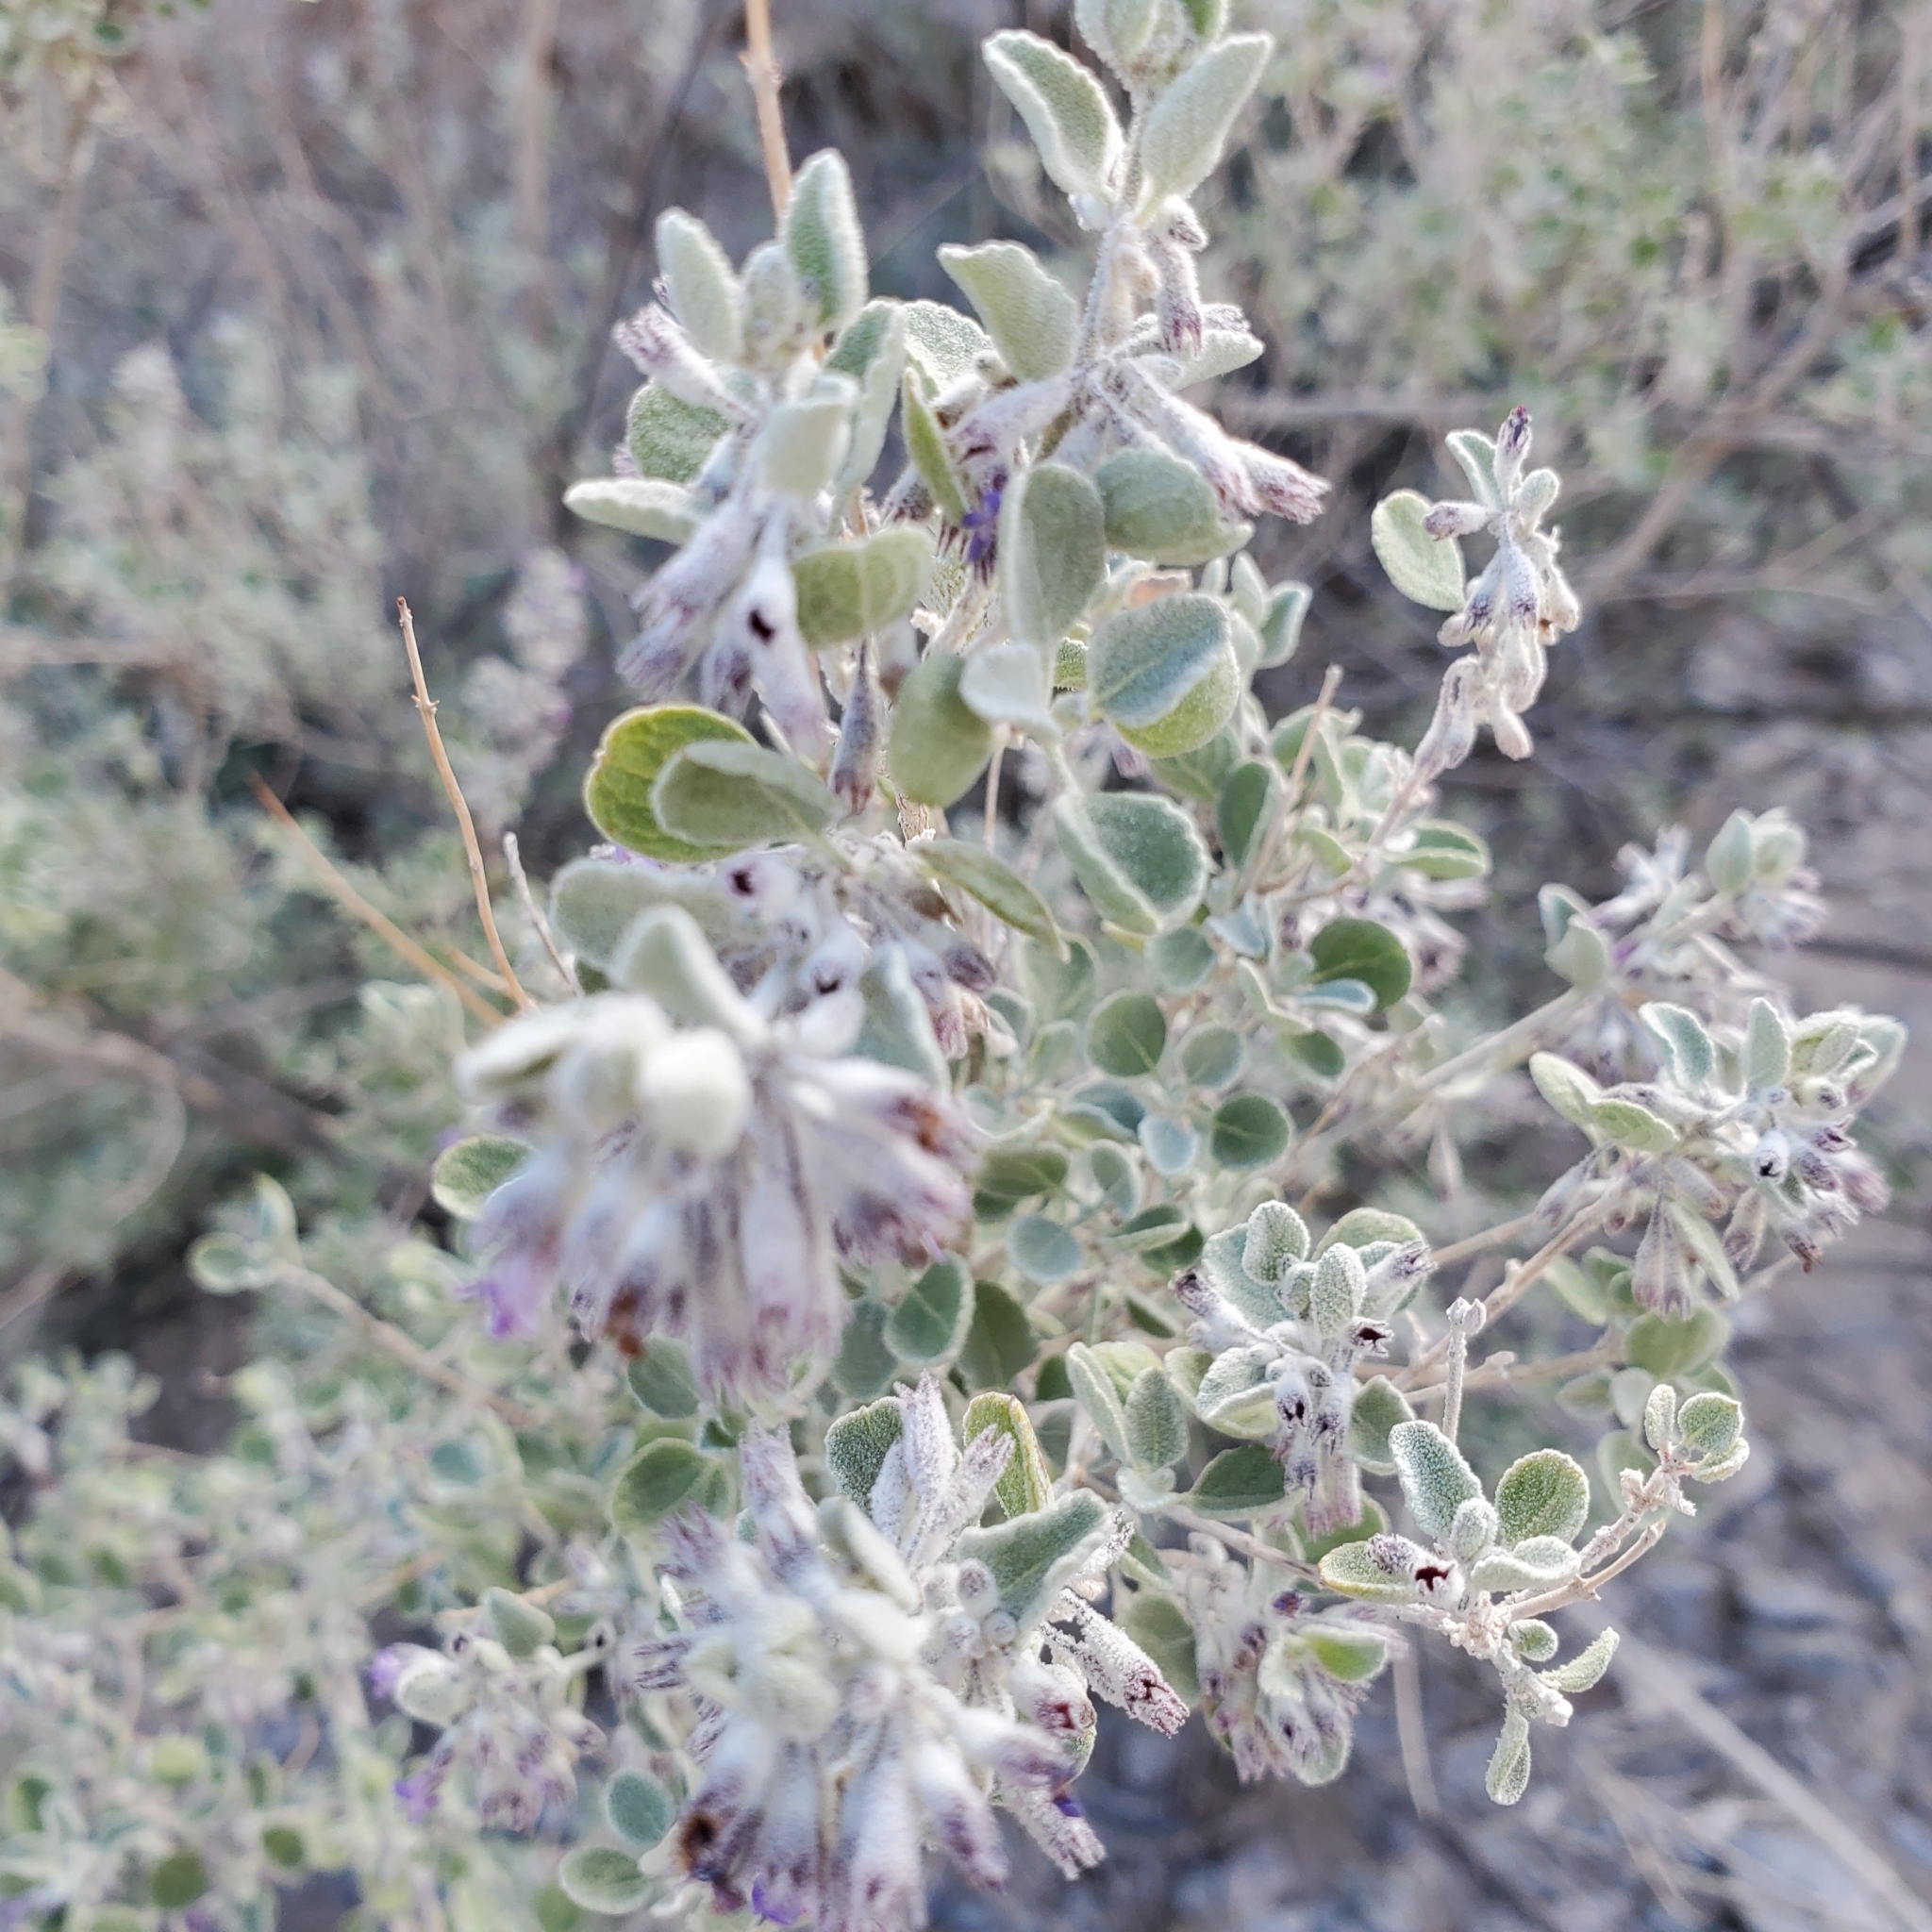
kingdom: Plantae
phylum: Tracheophyta
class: Magnoliopsida
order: Lamiales
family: Lamiaceae
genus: Condea
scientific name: Condea emoryi
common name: Chia
